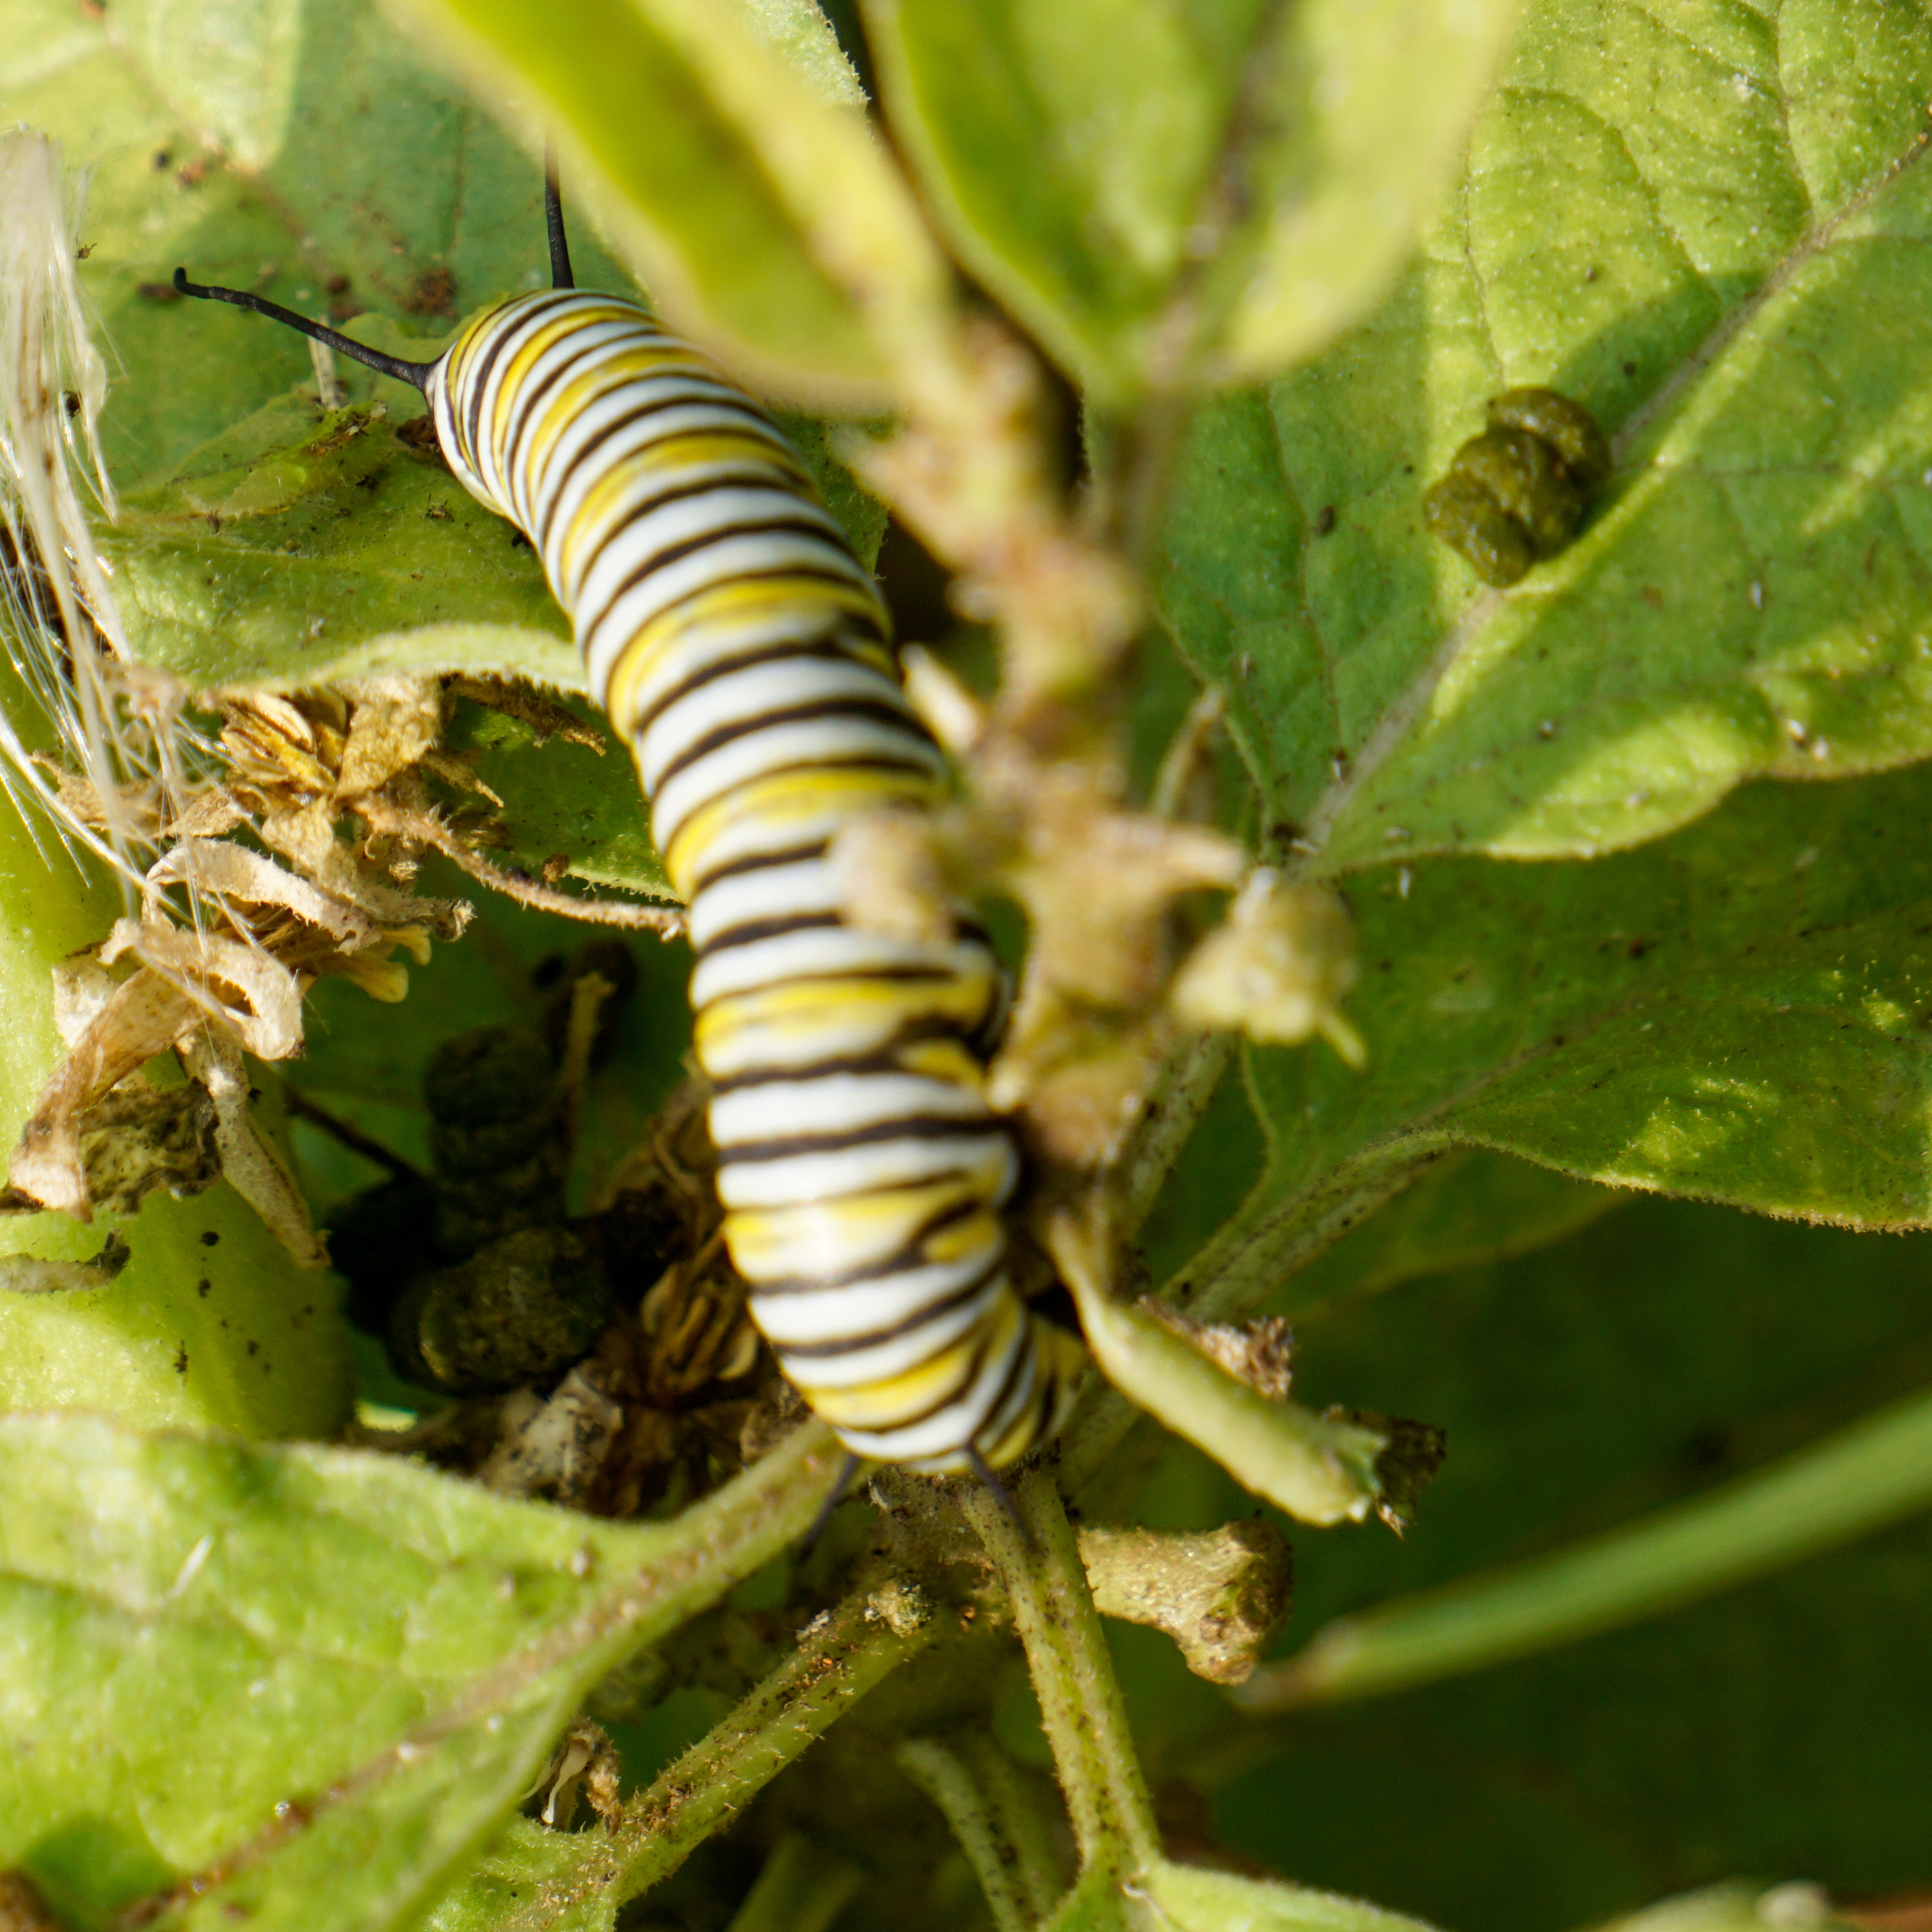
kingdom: Animalia
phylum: Arthropoda
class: Insecta
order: Lepidoptera
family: Nymphalidae
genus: Danaus
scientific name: Danaus plexippus
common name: Monarch
